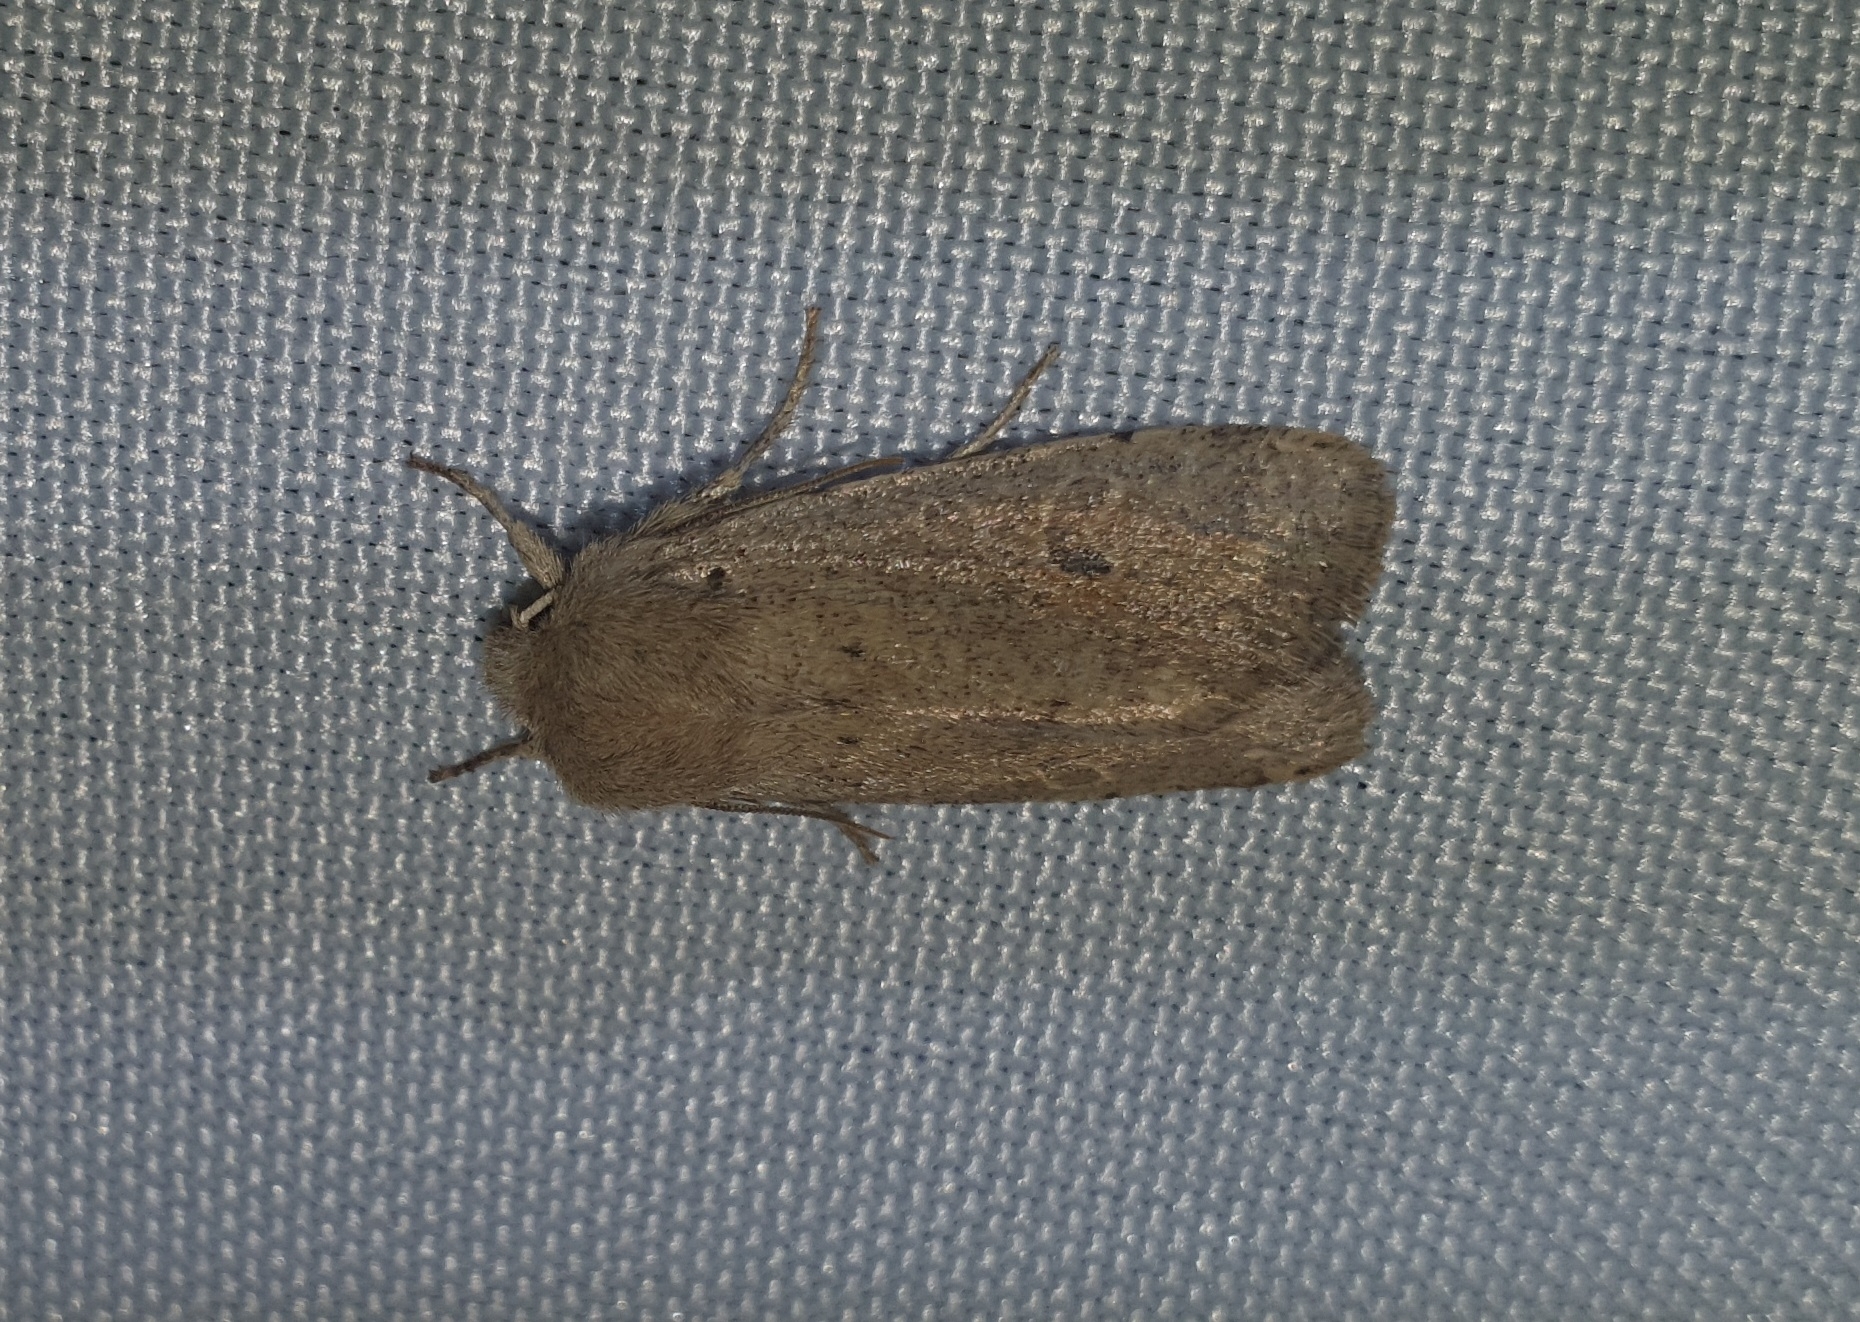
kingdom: Animalia
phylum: Arthropoda
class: Insecta
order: Lepidoptera
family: Noctuidae
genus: Orthosia
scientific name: Orthosia cruda
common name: Small quaker
